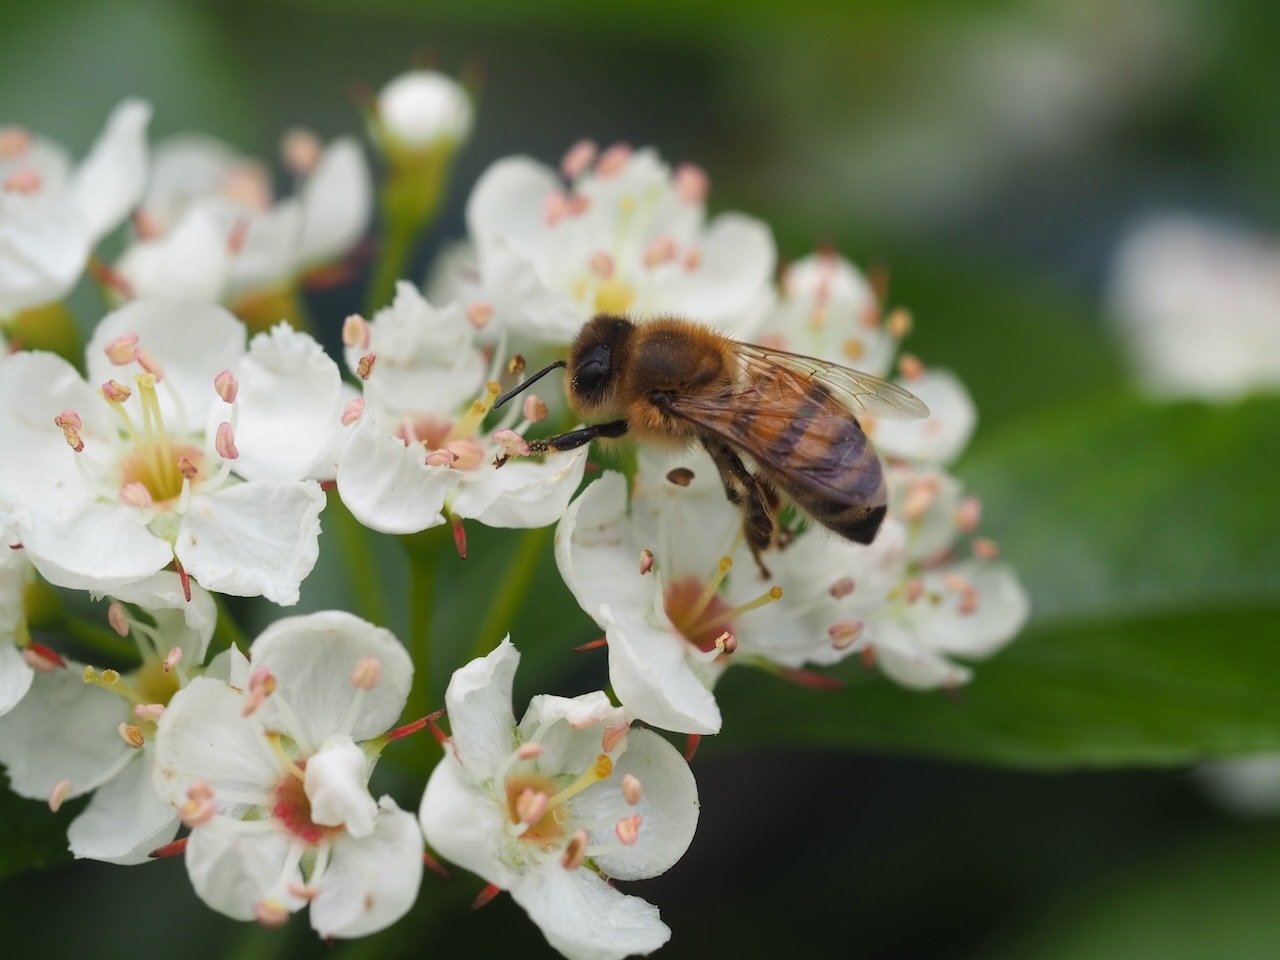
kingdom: Animalia
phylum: Arthropoda
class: Insecta
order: Hymenoptera
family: Apidae
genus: Apis
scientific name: Apis mellifera
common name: Honey bee
